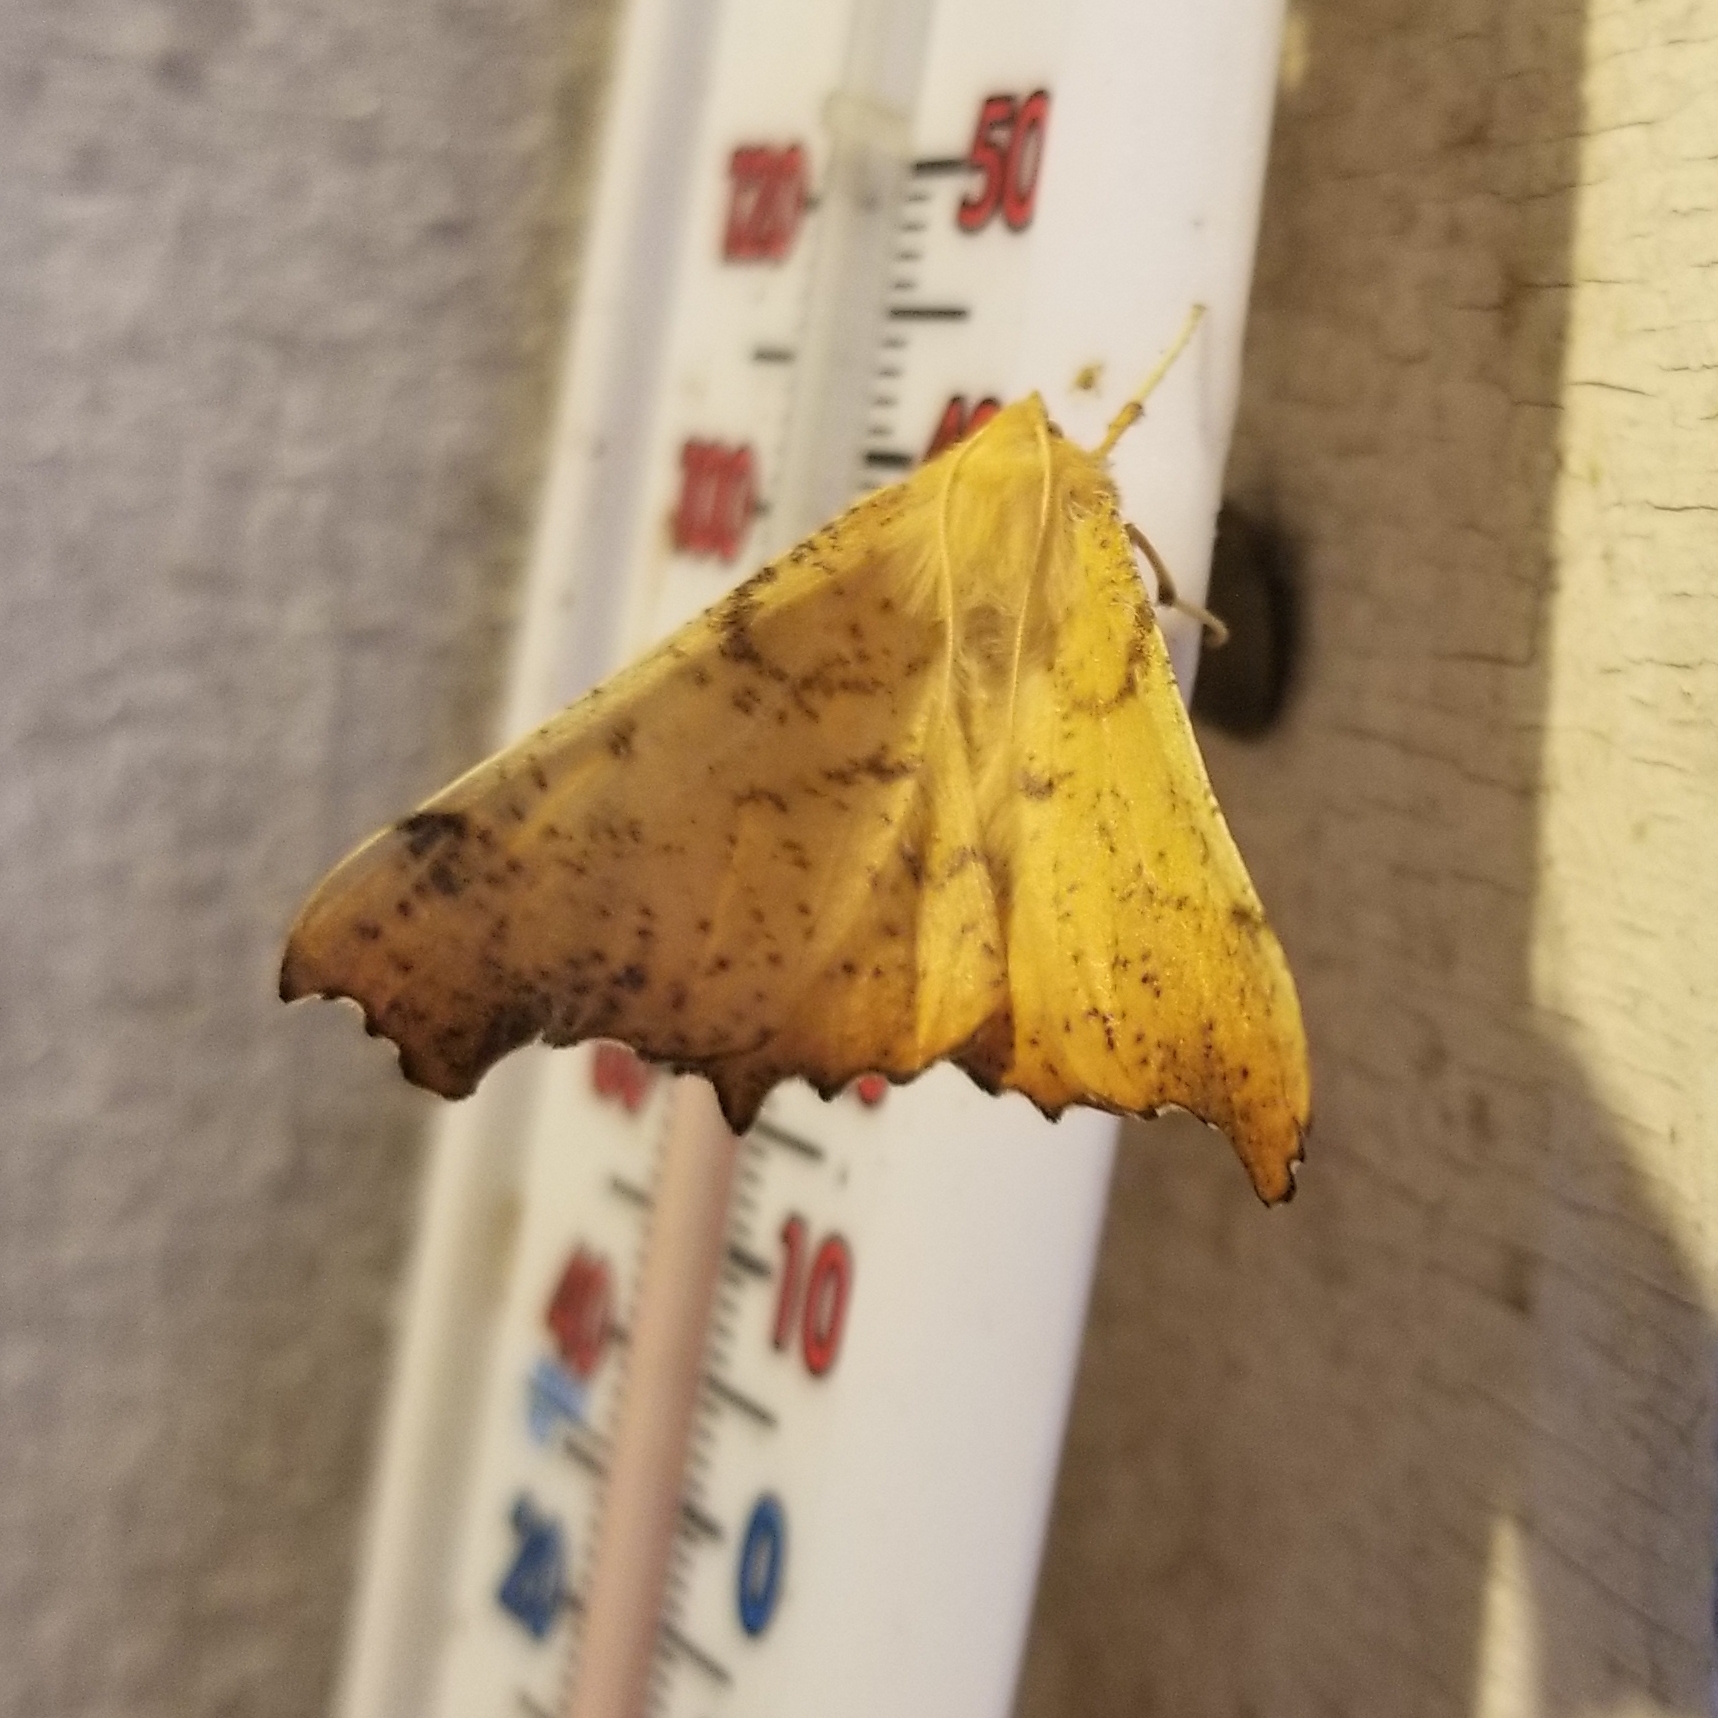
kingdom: Animalia
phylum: Arthropoda
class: Insecta
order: Lepidoptera
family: Geometridae
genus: Ennomos
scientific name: Ennomos magnaria
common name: Maple spanworm
